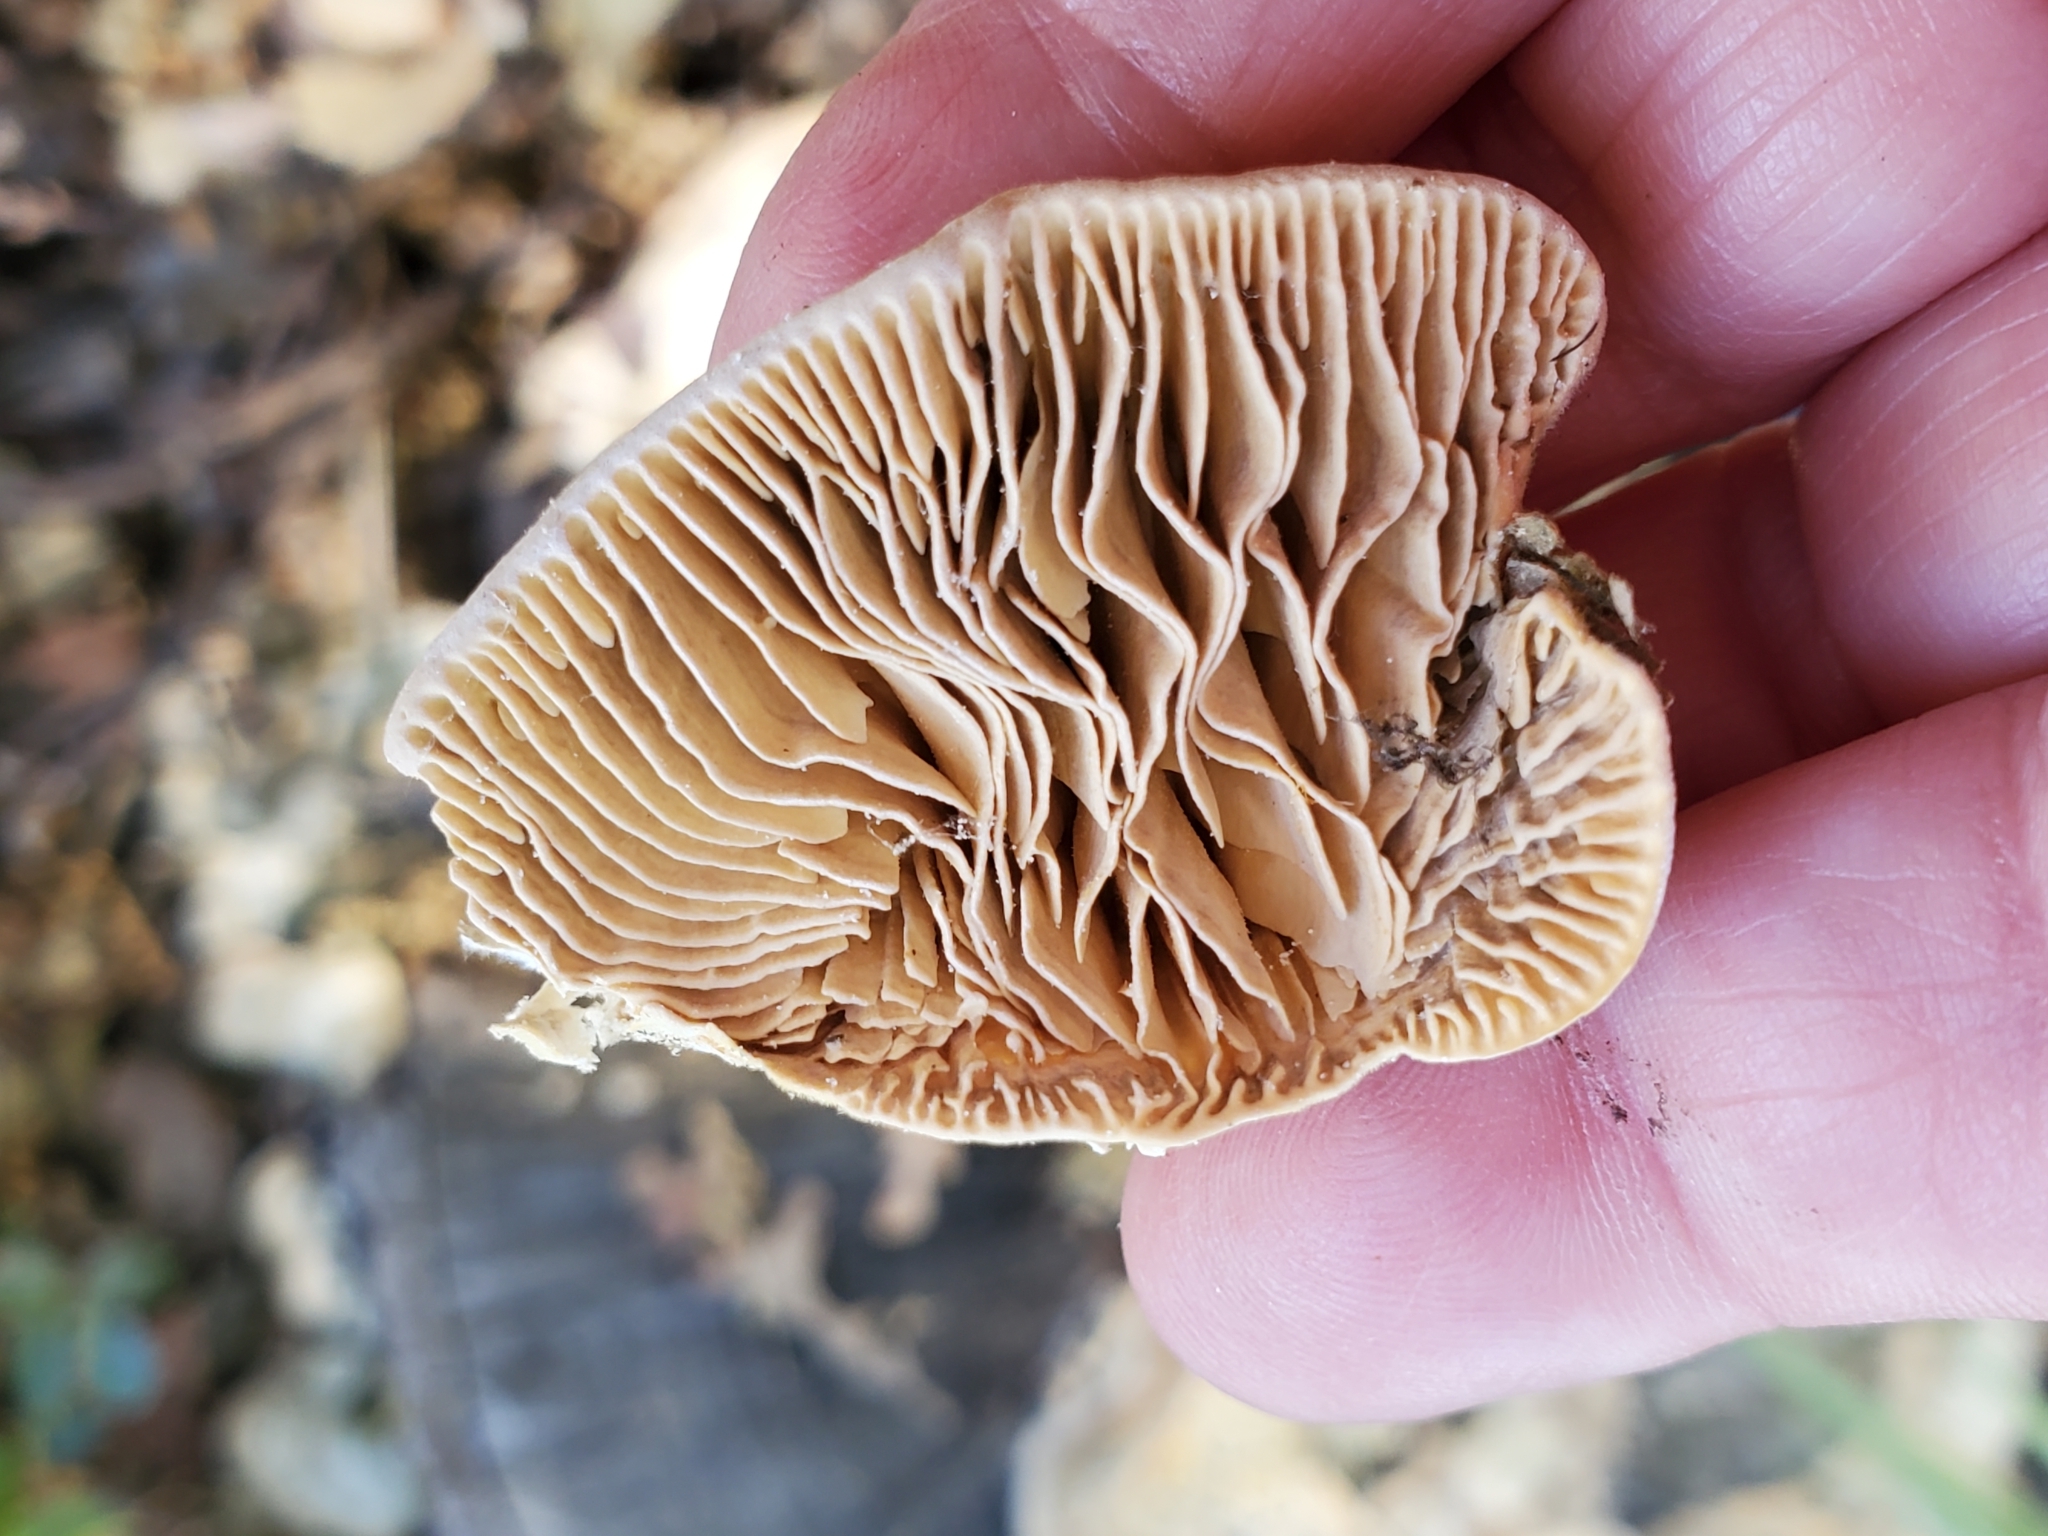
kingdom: Fungi
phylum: Basidiomycota
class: Agaricomycetes
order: Polyporales
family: Polyporaceae
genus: Lenzites
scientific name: Lenzites betulinus
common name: Birch mazegill
